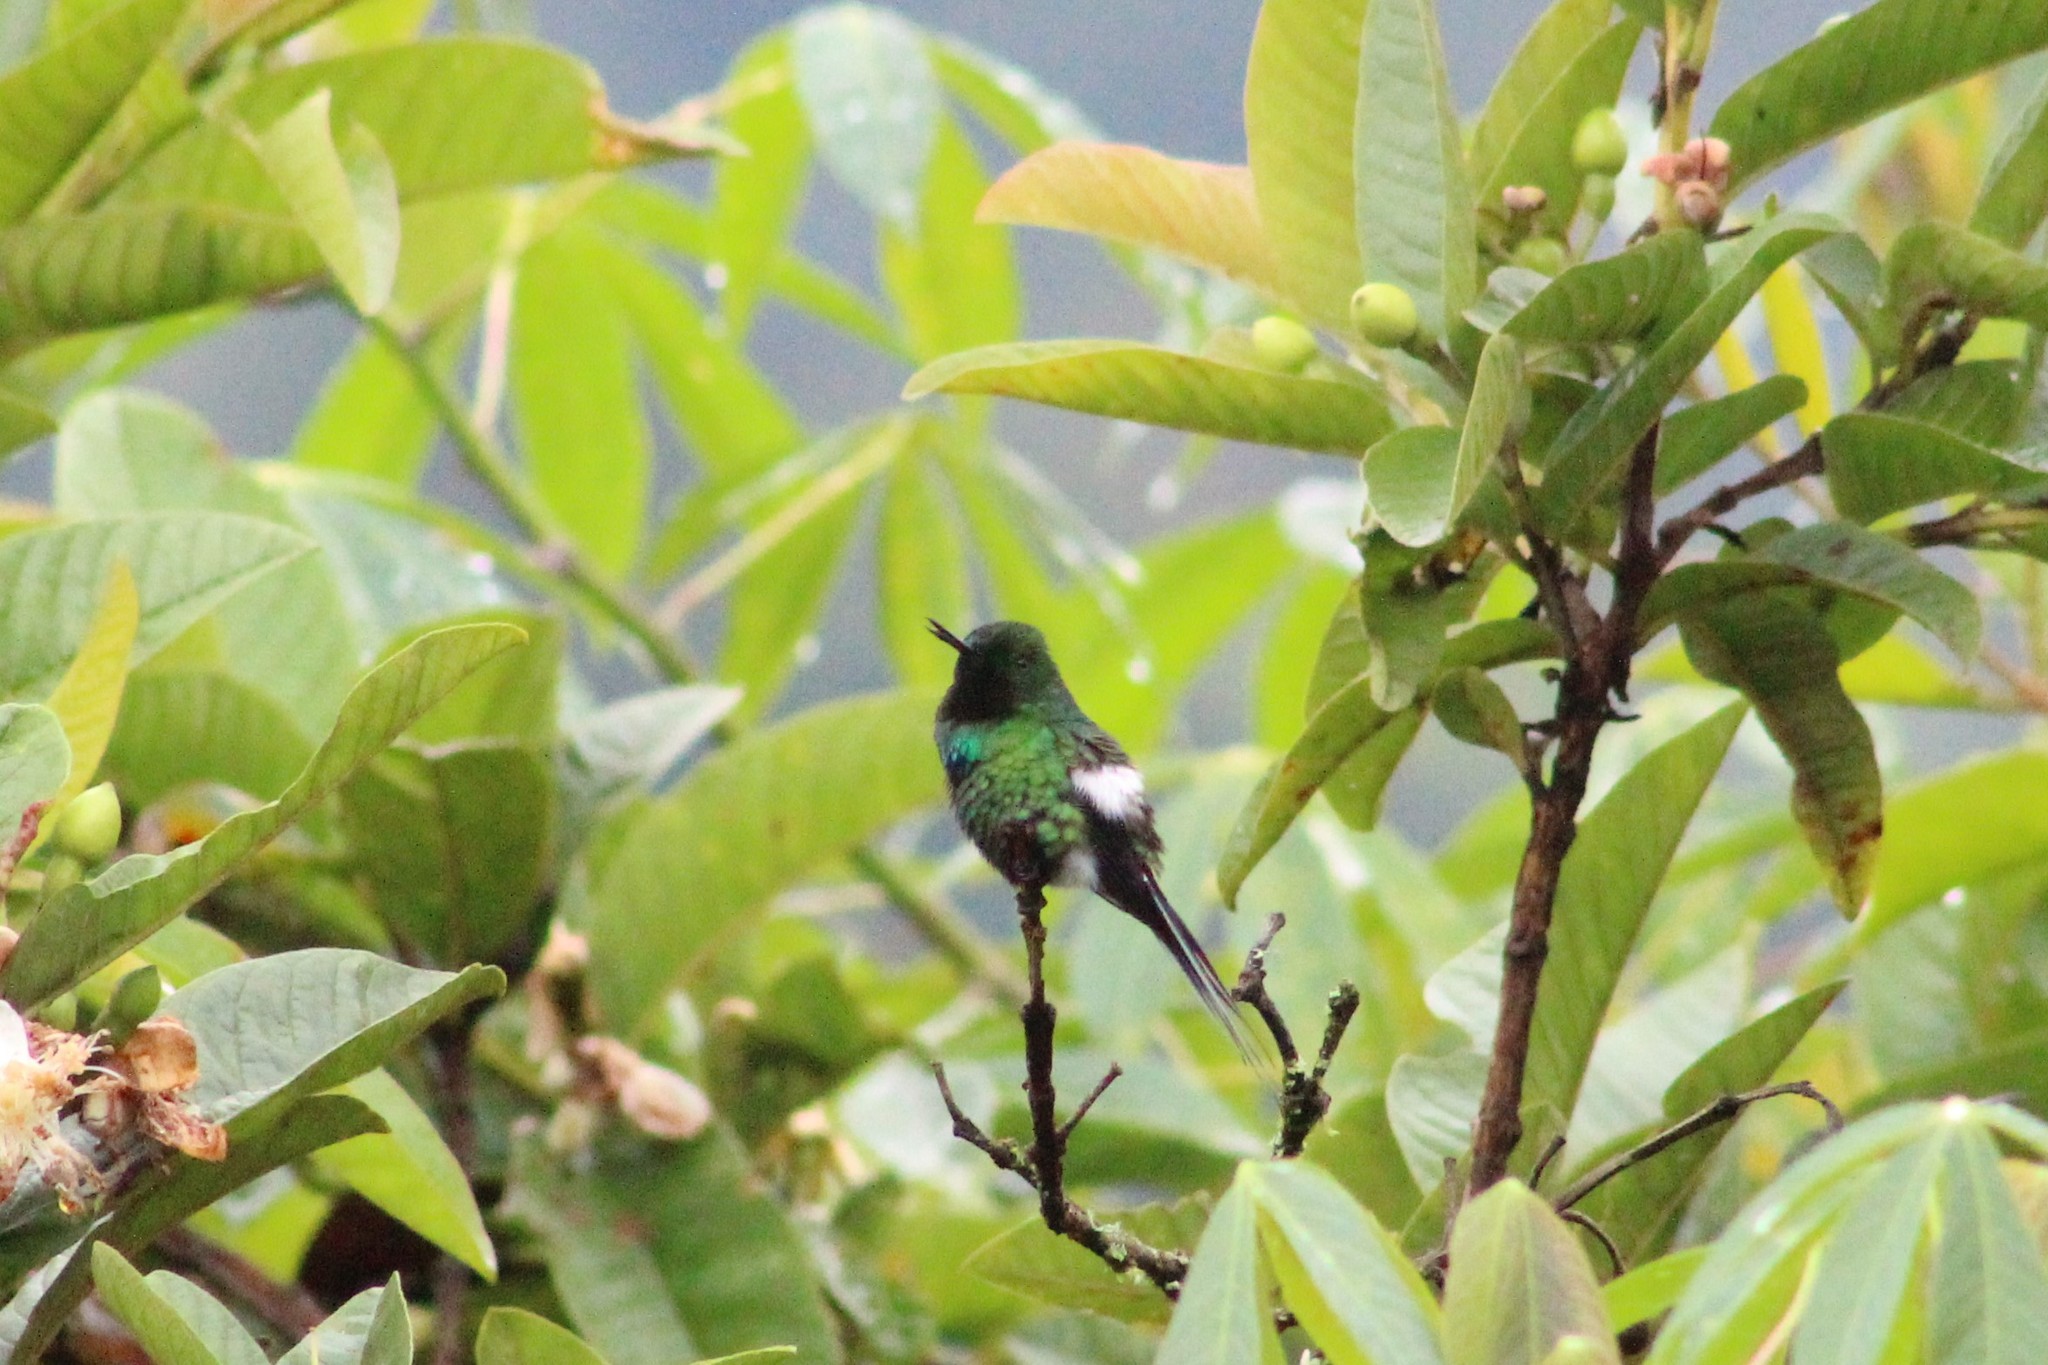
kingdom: Animalia
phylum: Chordata
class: Aves
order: Apodiformes
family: Trochilidae
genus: Discosura
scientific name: Discosura conversii
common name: Green thorntail
